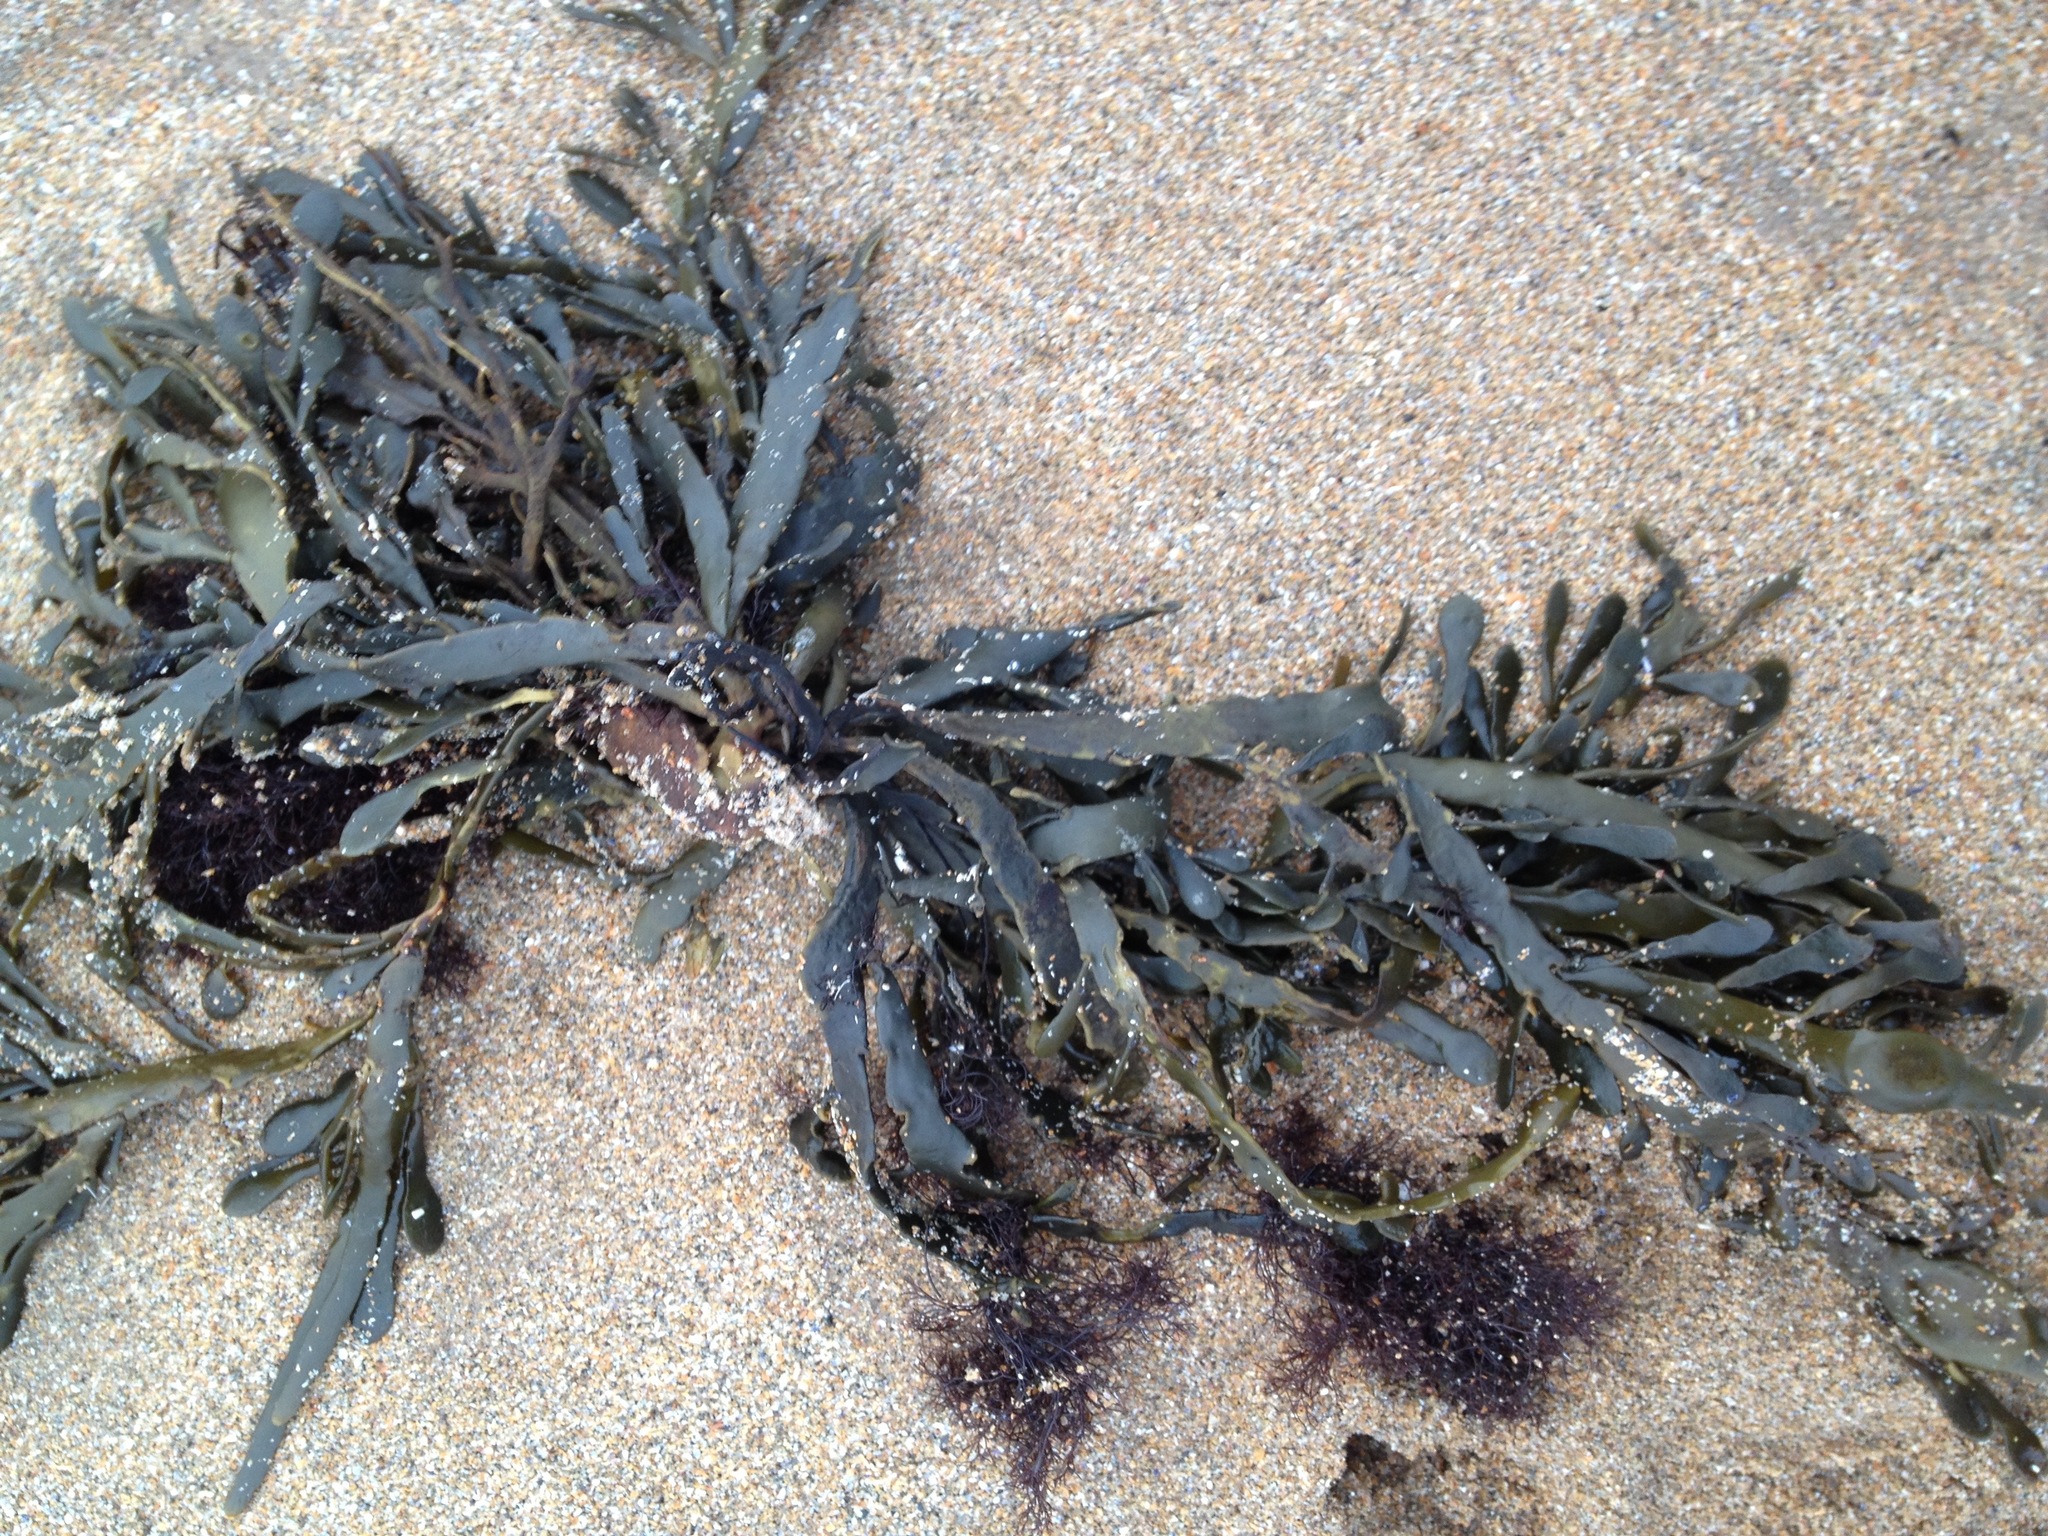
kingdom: Chromista
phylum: Ochrophyta
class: Phaeophyceae
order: Fucales
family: Fucaceae
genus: Ascophyllum
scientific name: Ascophyllum nodosum
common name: Knotted wrack
